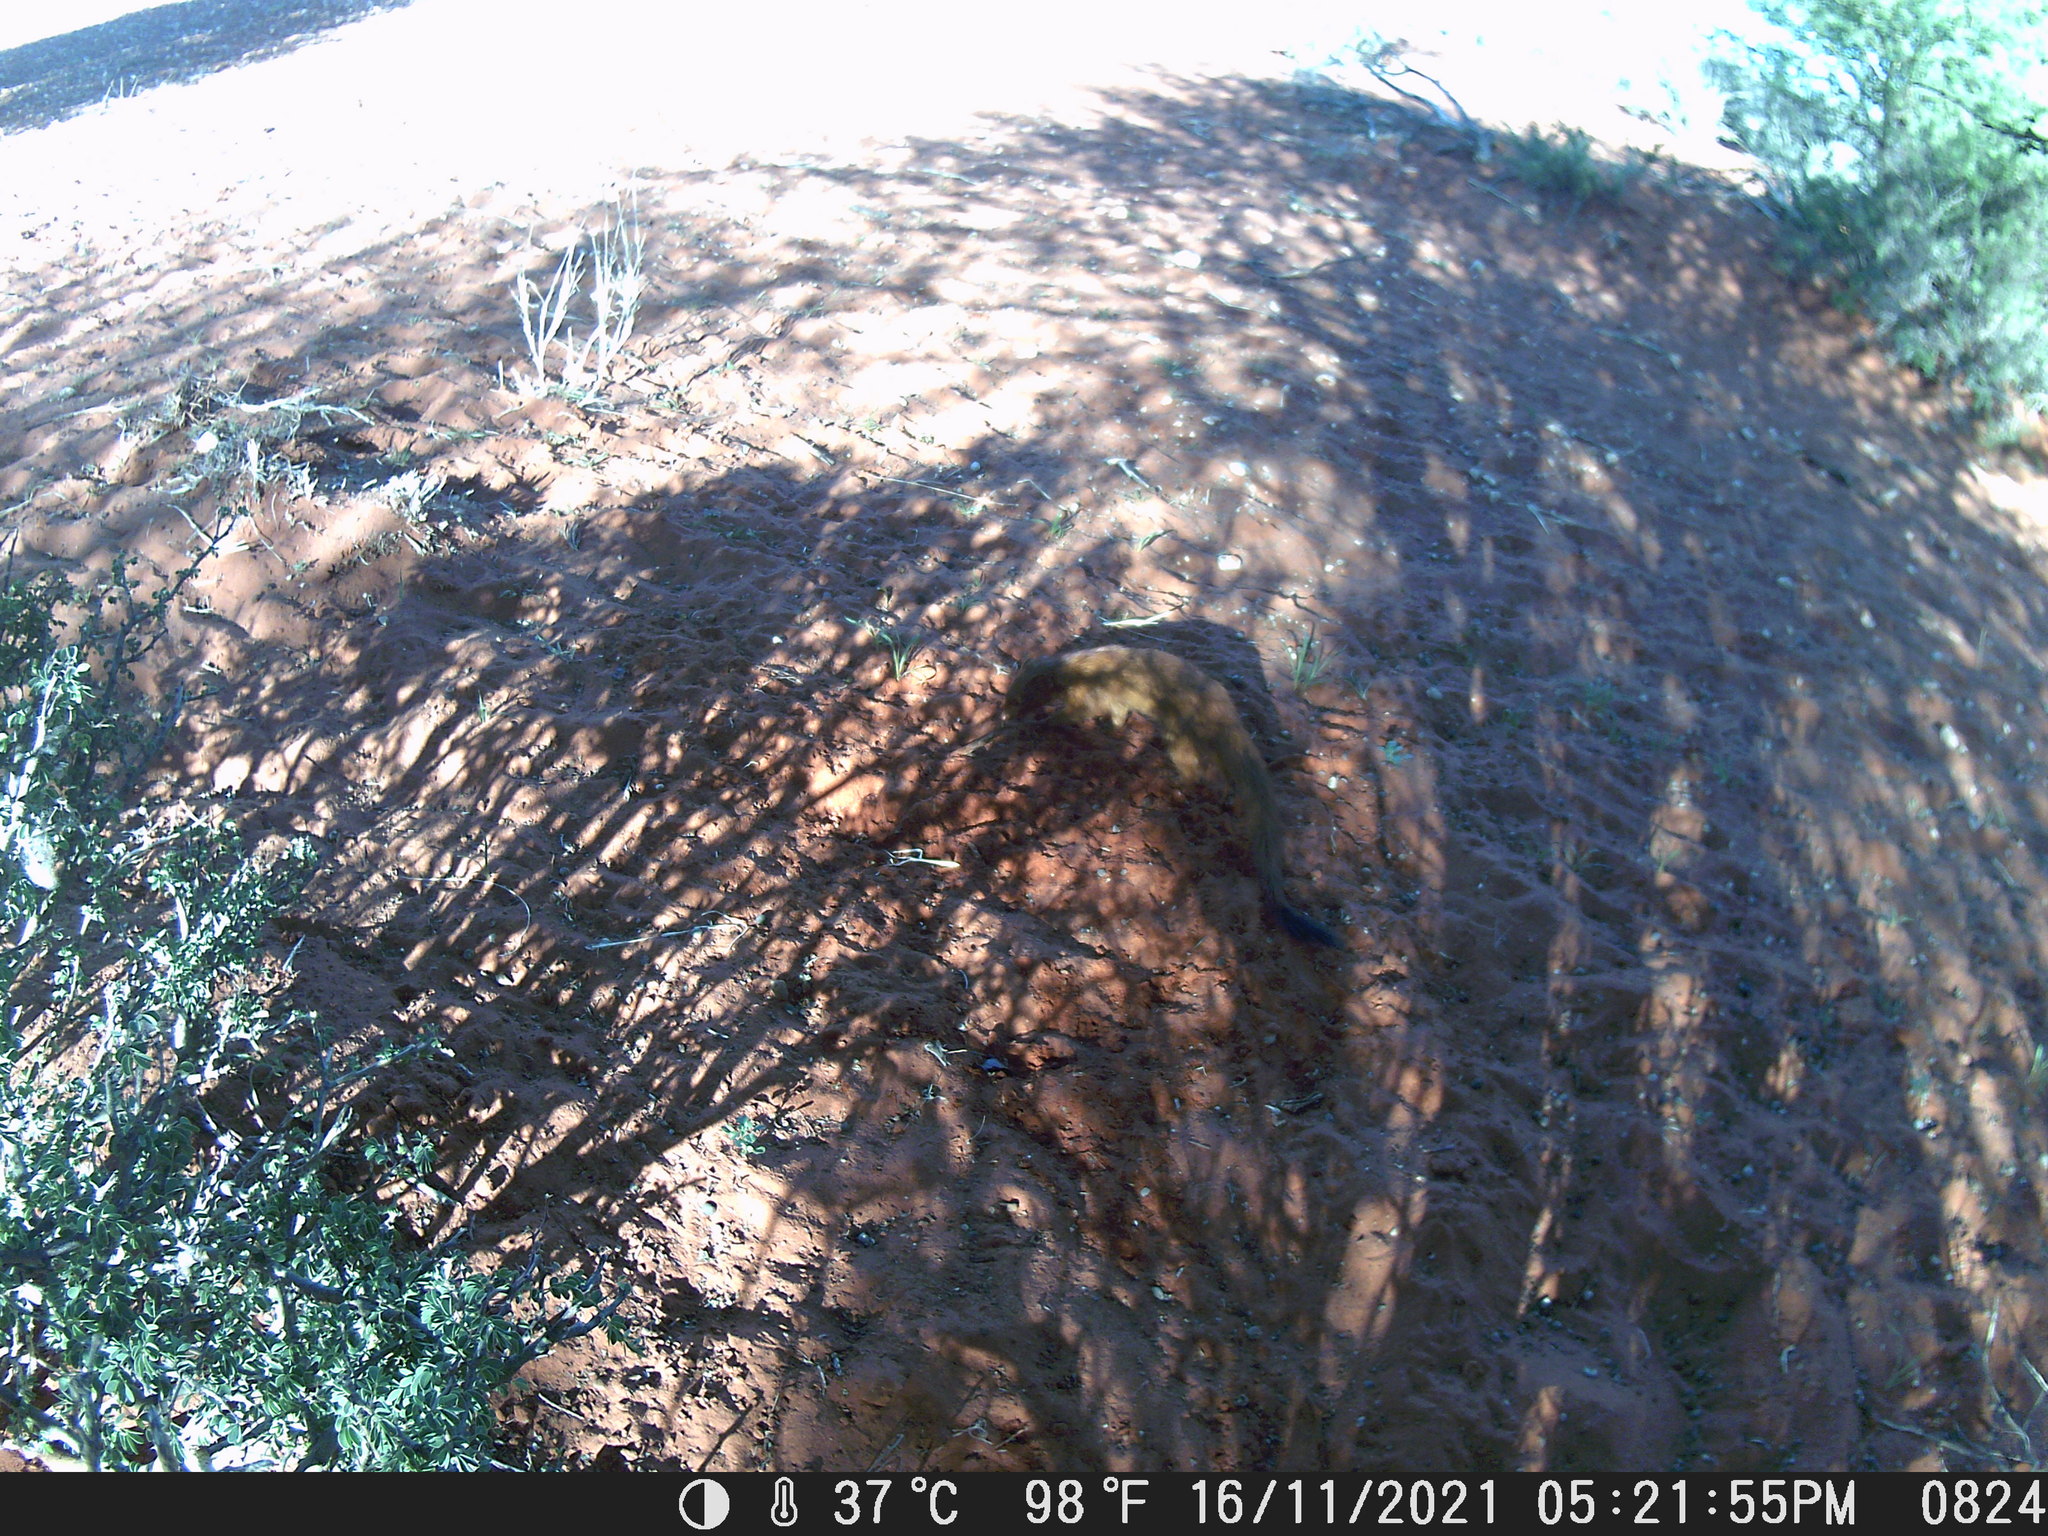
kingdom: Animalia
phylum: Chordata
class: Mammalia
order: Carnivora
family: Herpestidae
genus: Galerella
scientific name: Galerella sanguinea
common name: Slender mongoose
